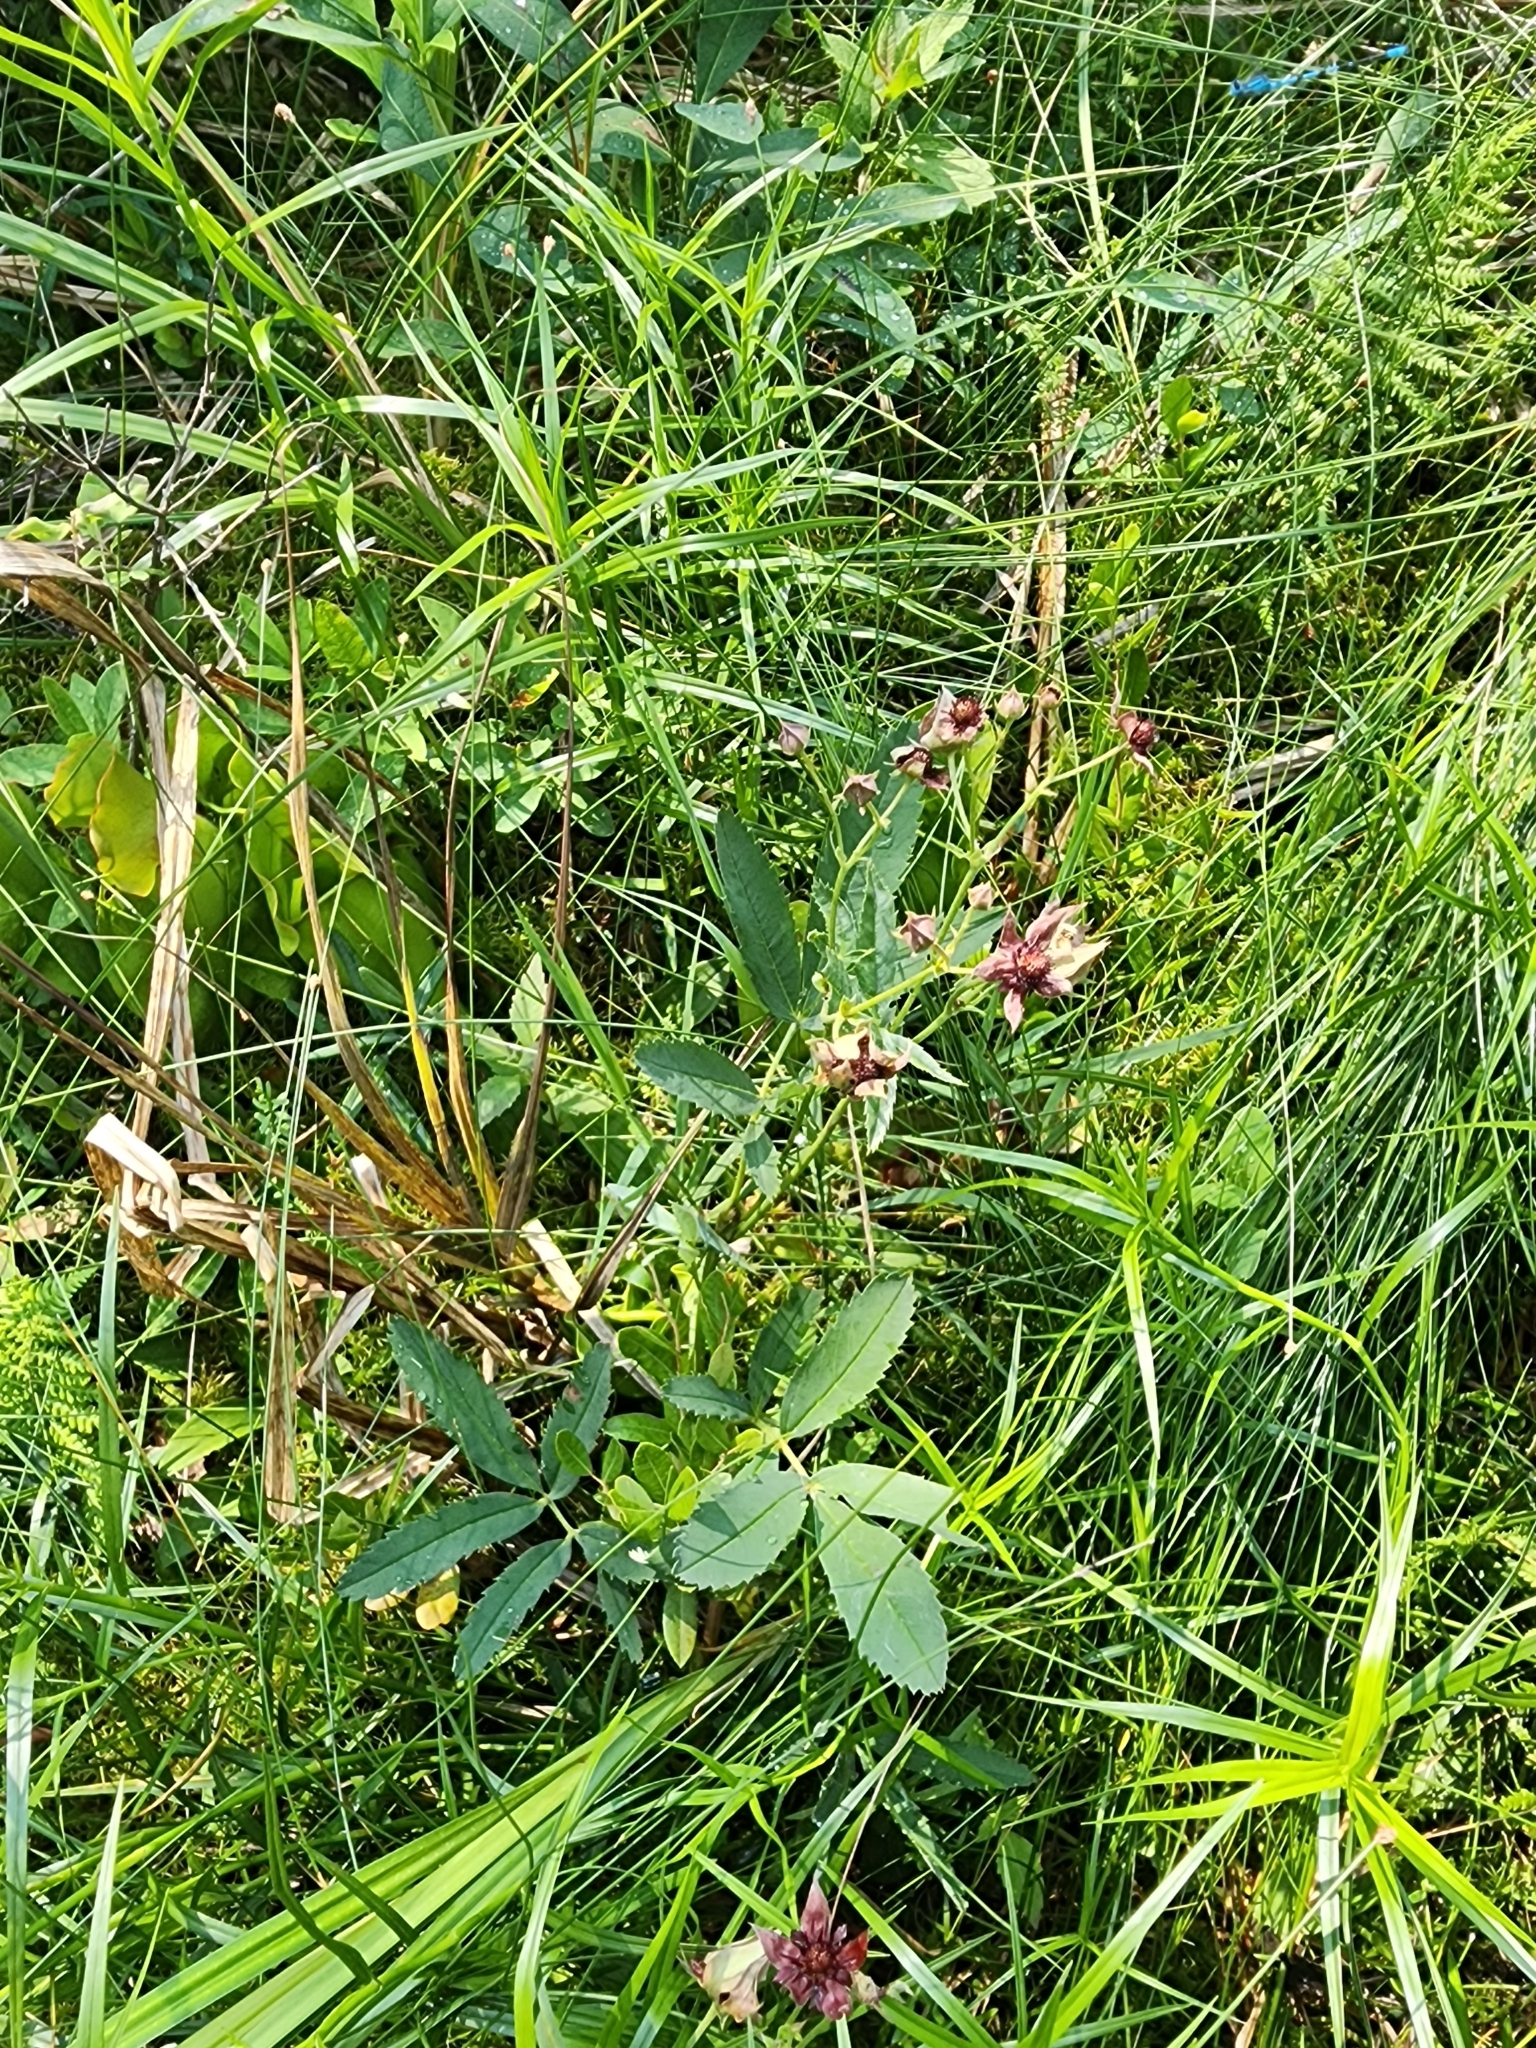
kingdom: Plantae
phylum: Tracheophyta
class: Magnoliopsida
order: Rosales
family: Rosaceae
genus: Comarum
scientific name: Comarum palustre
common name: Marsh cinquefoil
